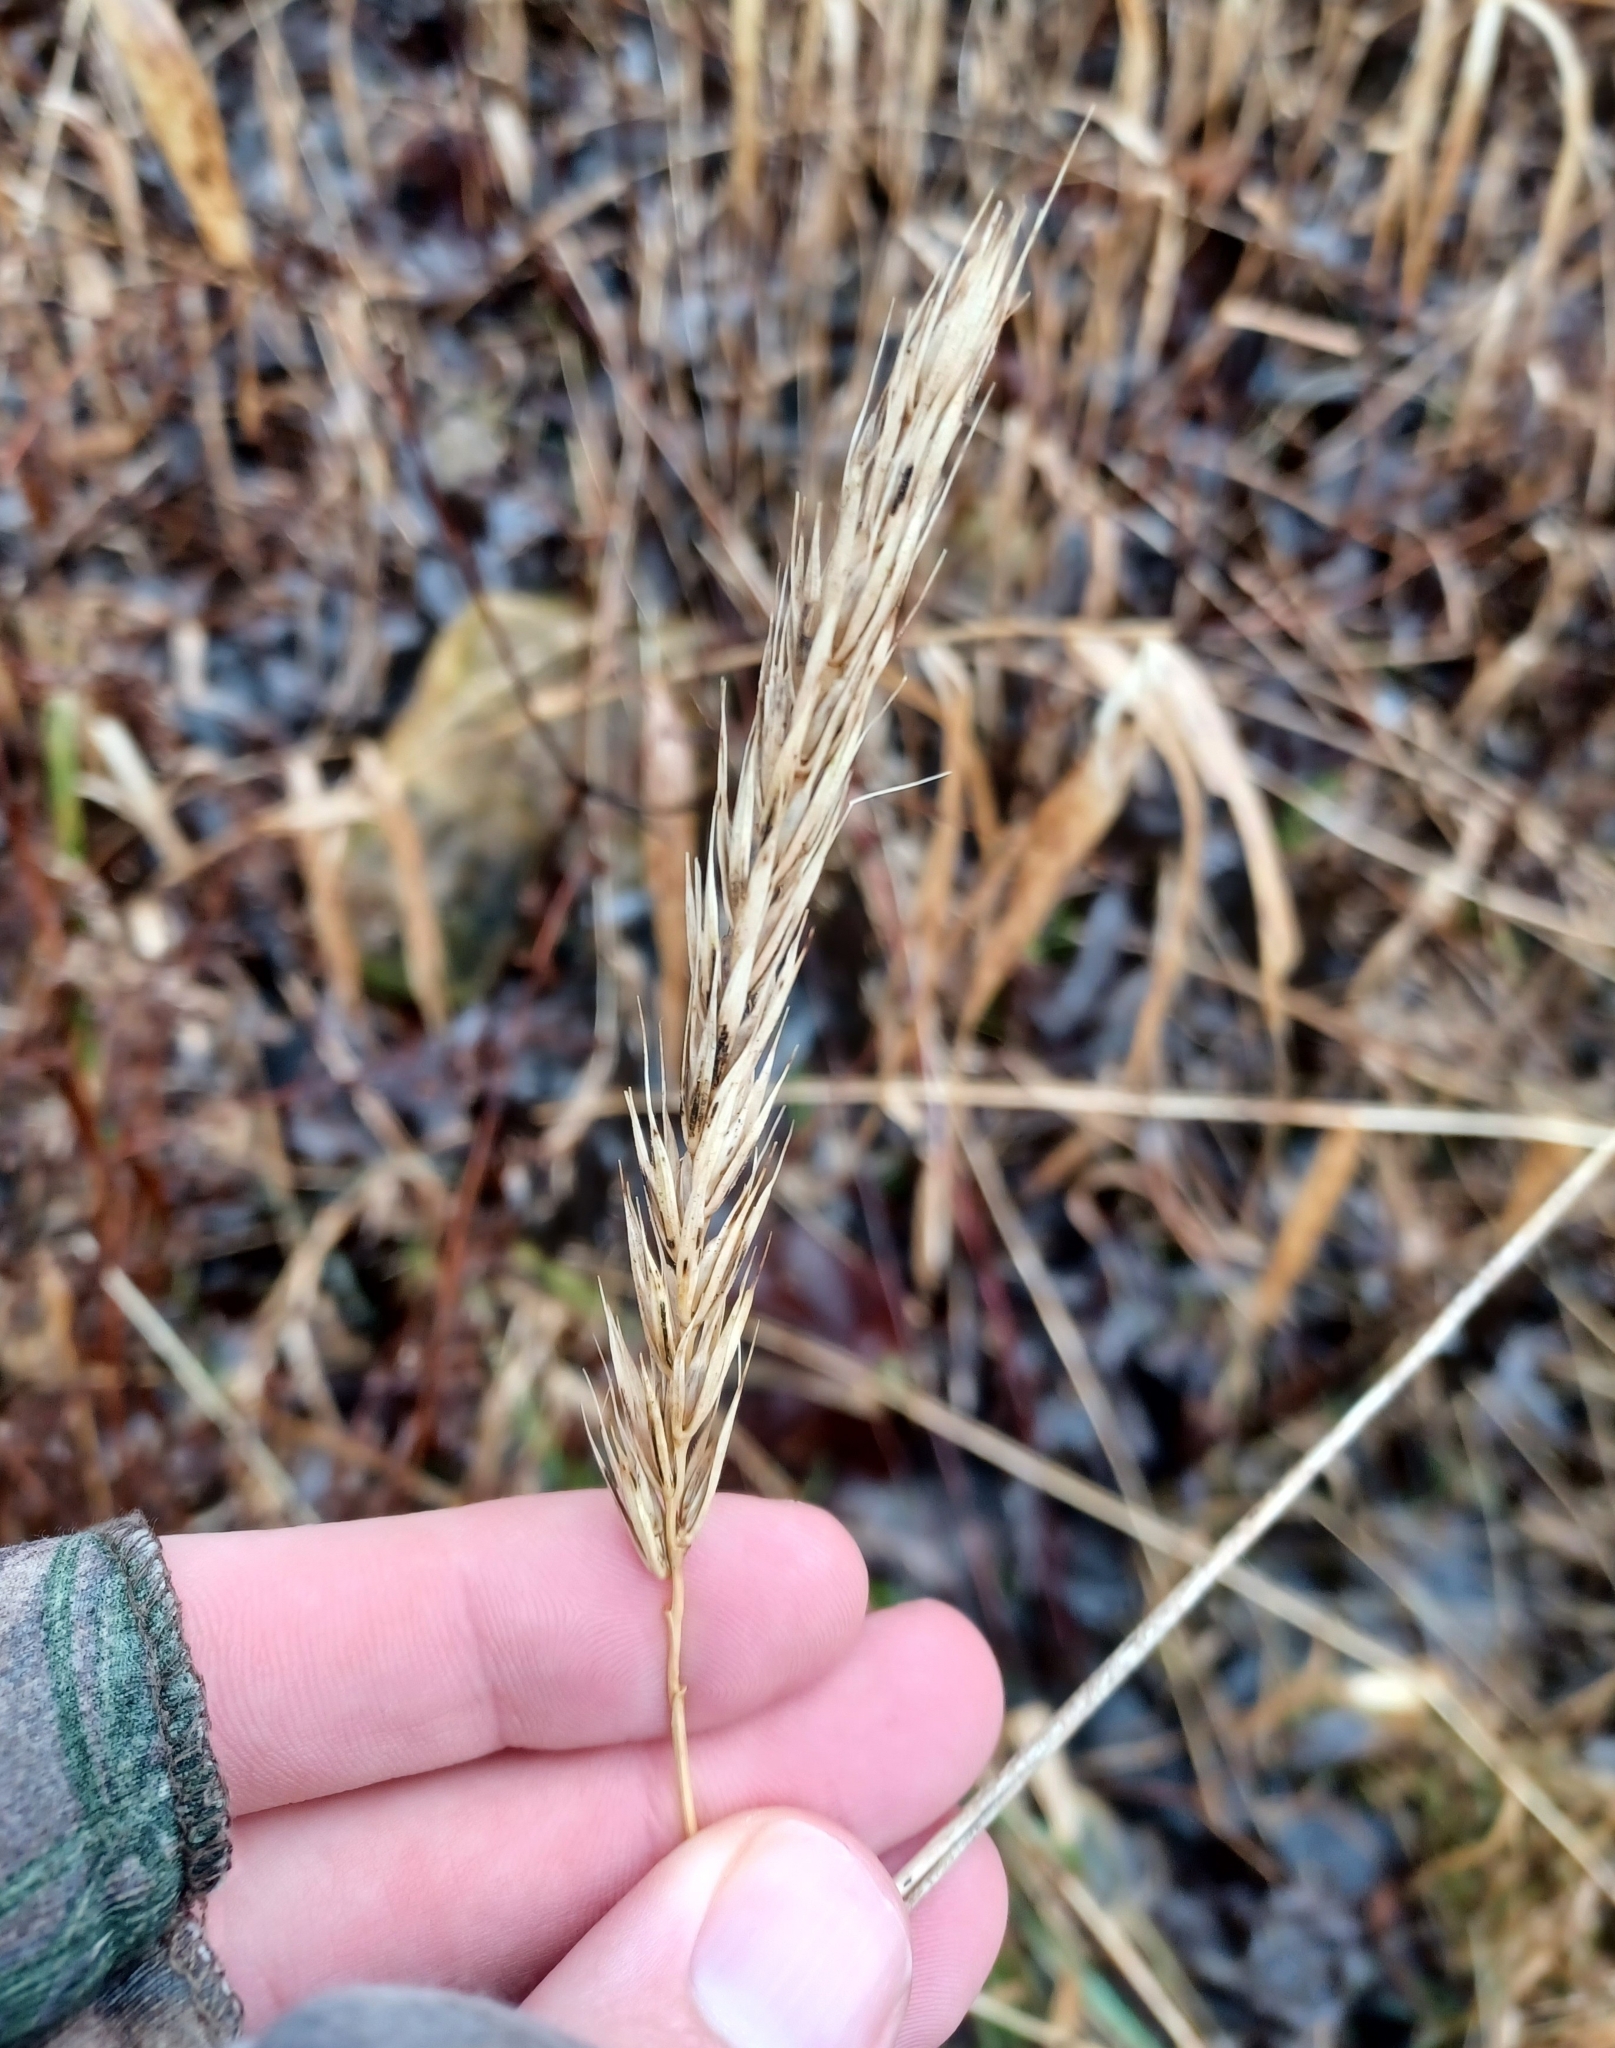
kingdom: Plantae
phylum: Tracheophyta
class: Liliopsida
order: Poales
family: Poaceae
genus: Elymus
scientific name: Elymus virginicus
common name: Common eastern wildrye
